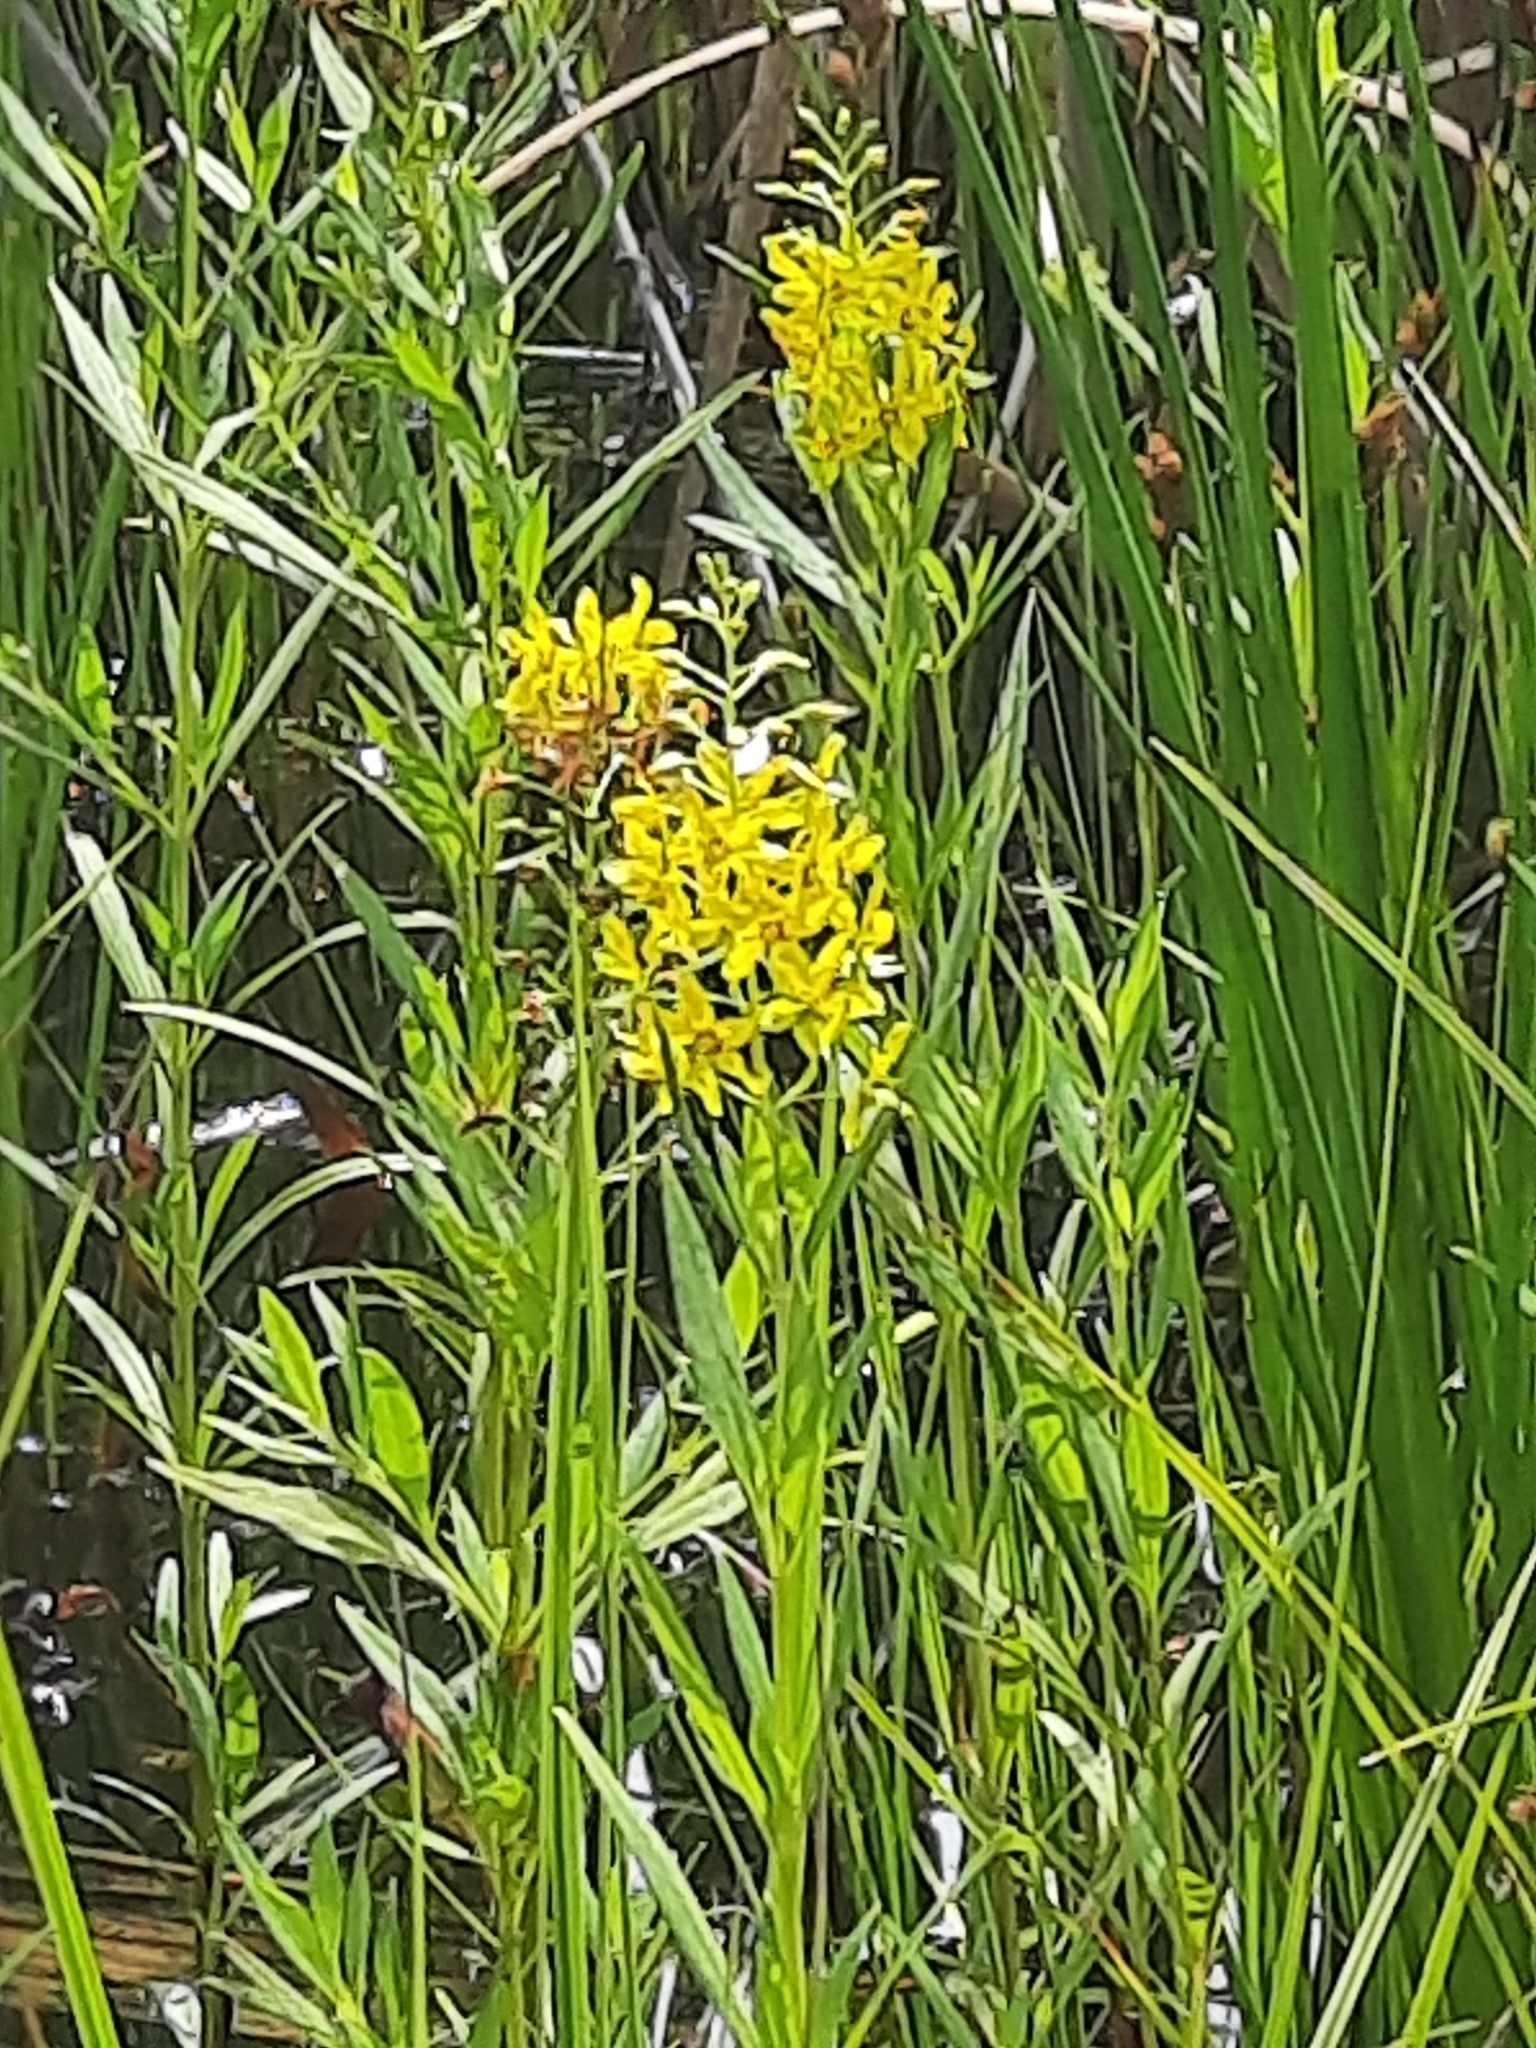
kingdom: Plantae
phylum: Tracheophyta
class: Magnoliopsida
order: Ericales
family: Primulaceae
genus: Lysimachia
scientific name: Lysimachia terrestris
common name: Lake loosestrife
